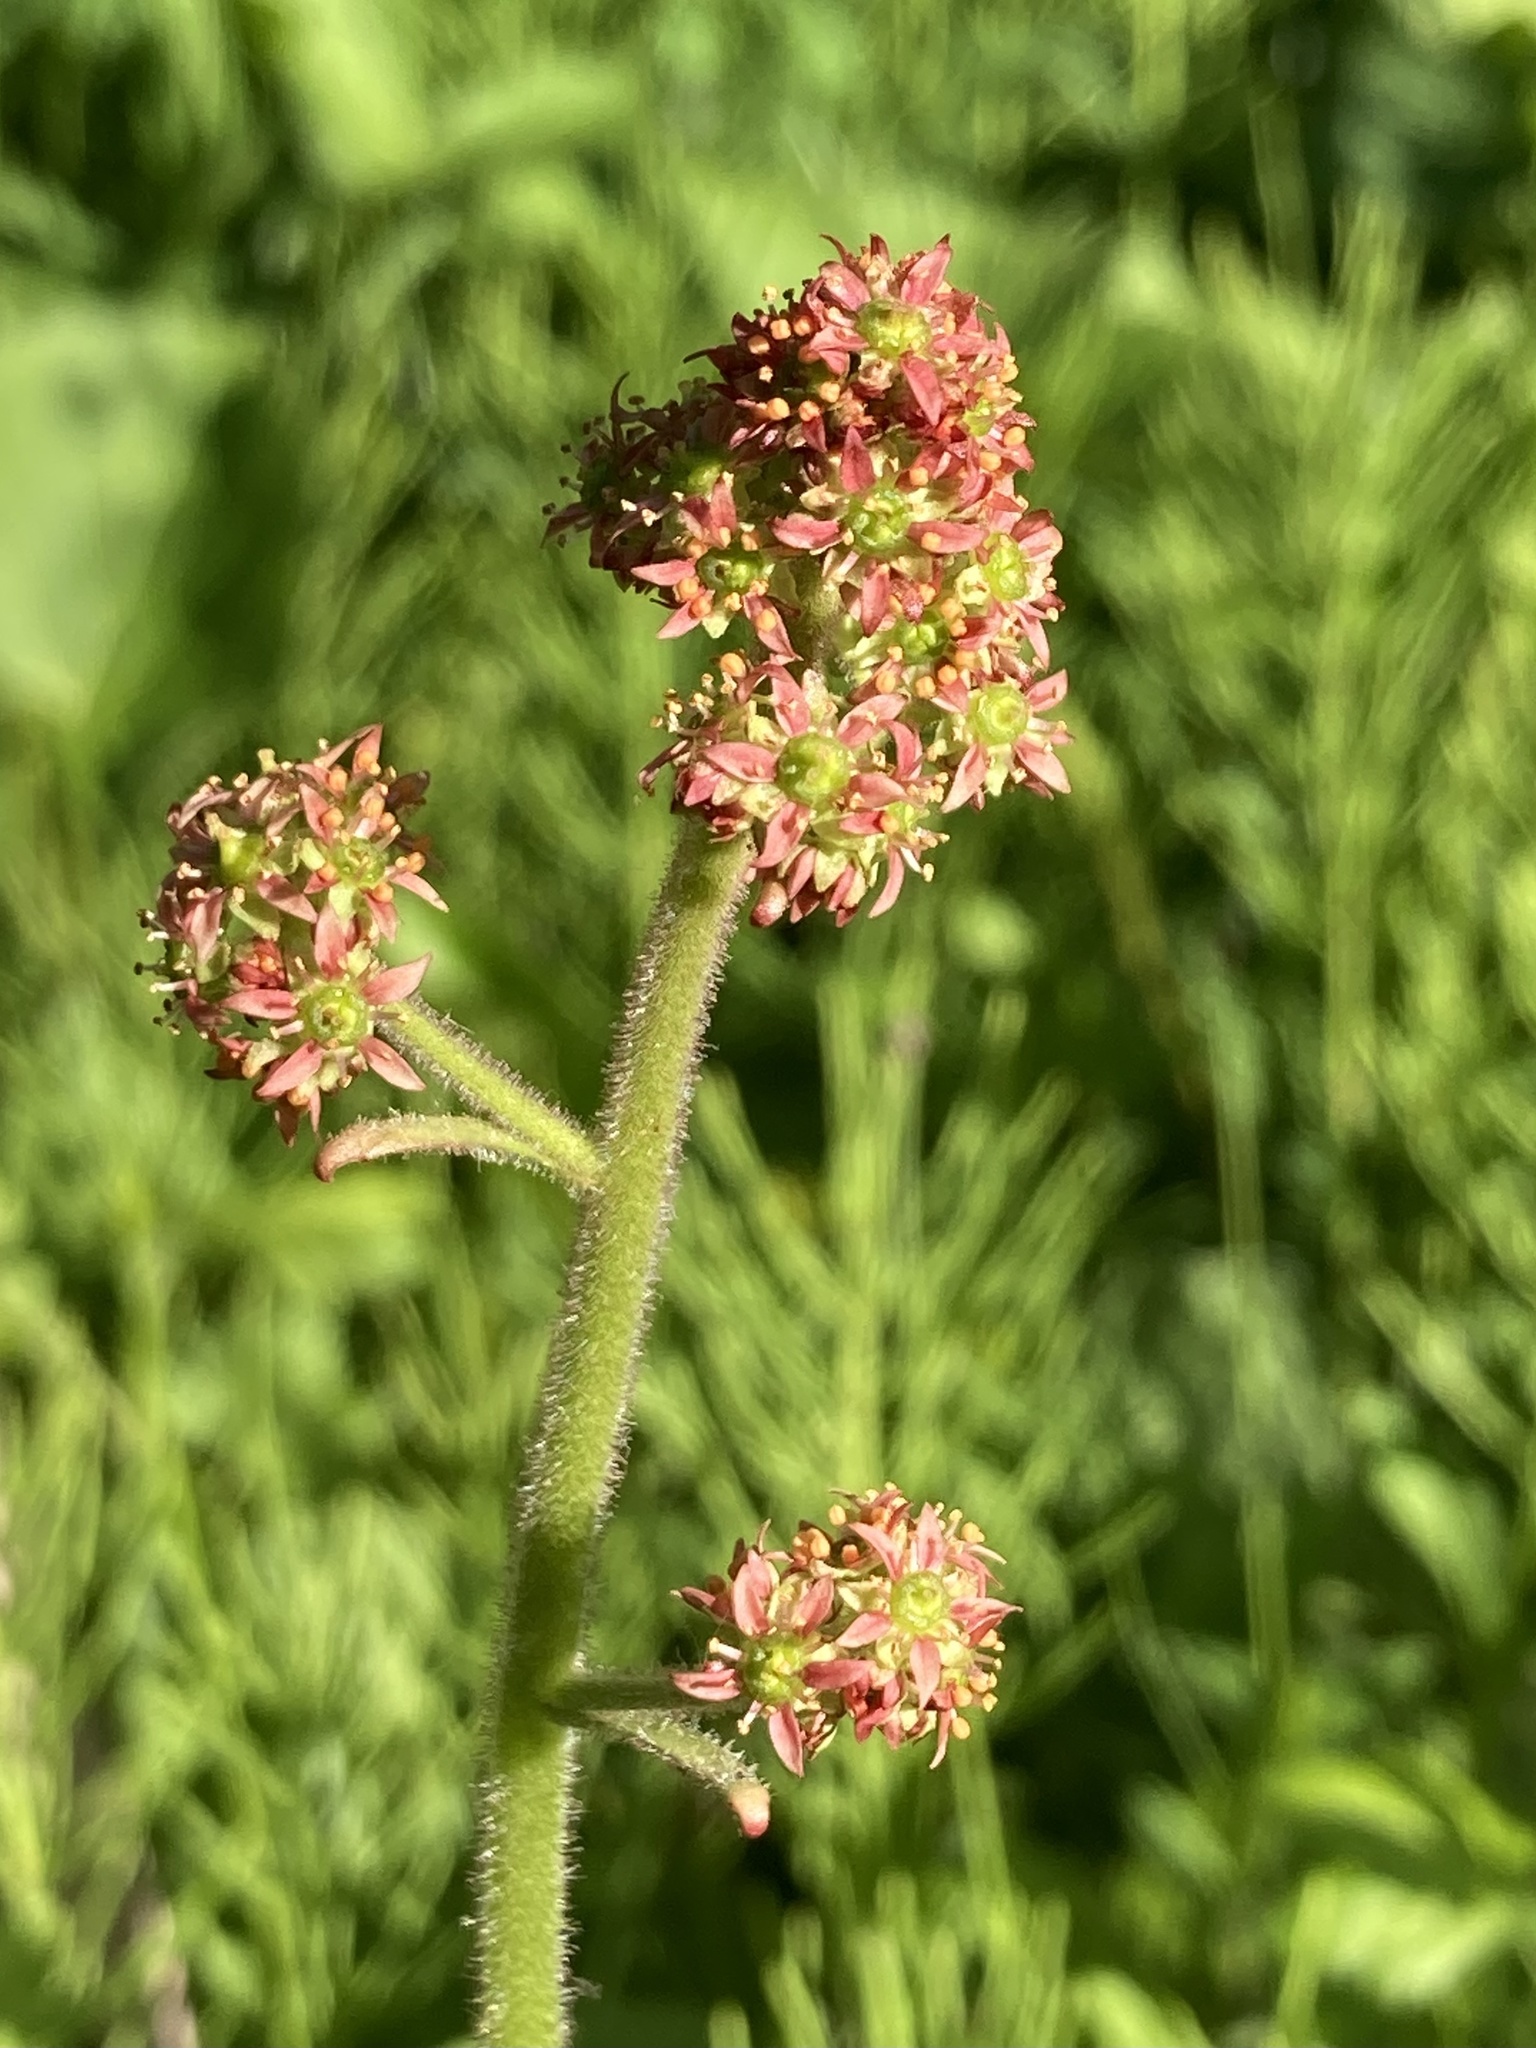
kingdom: Plantae
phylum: Tracheophyta
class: Magnoliopsida
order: Saxifragales
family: Saxifragaceae
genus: Micranthes
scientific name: Micranthes pensylvanica
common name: Marsh saxifrage
